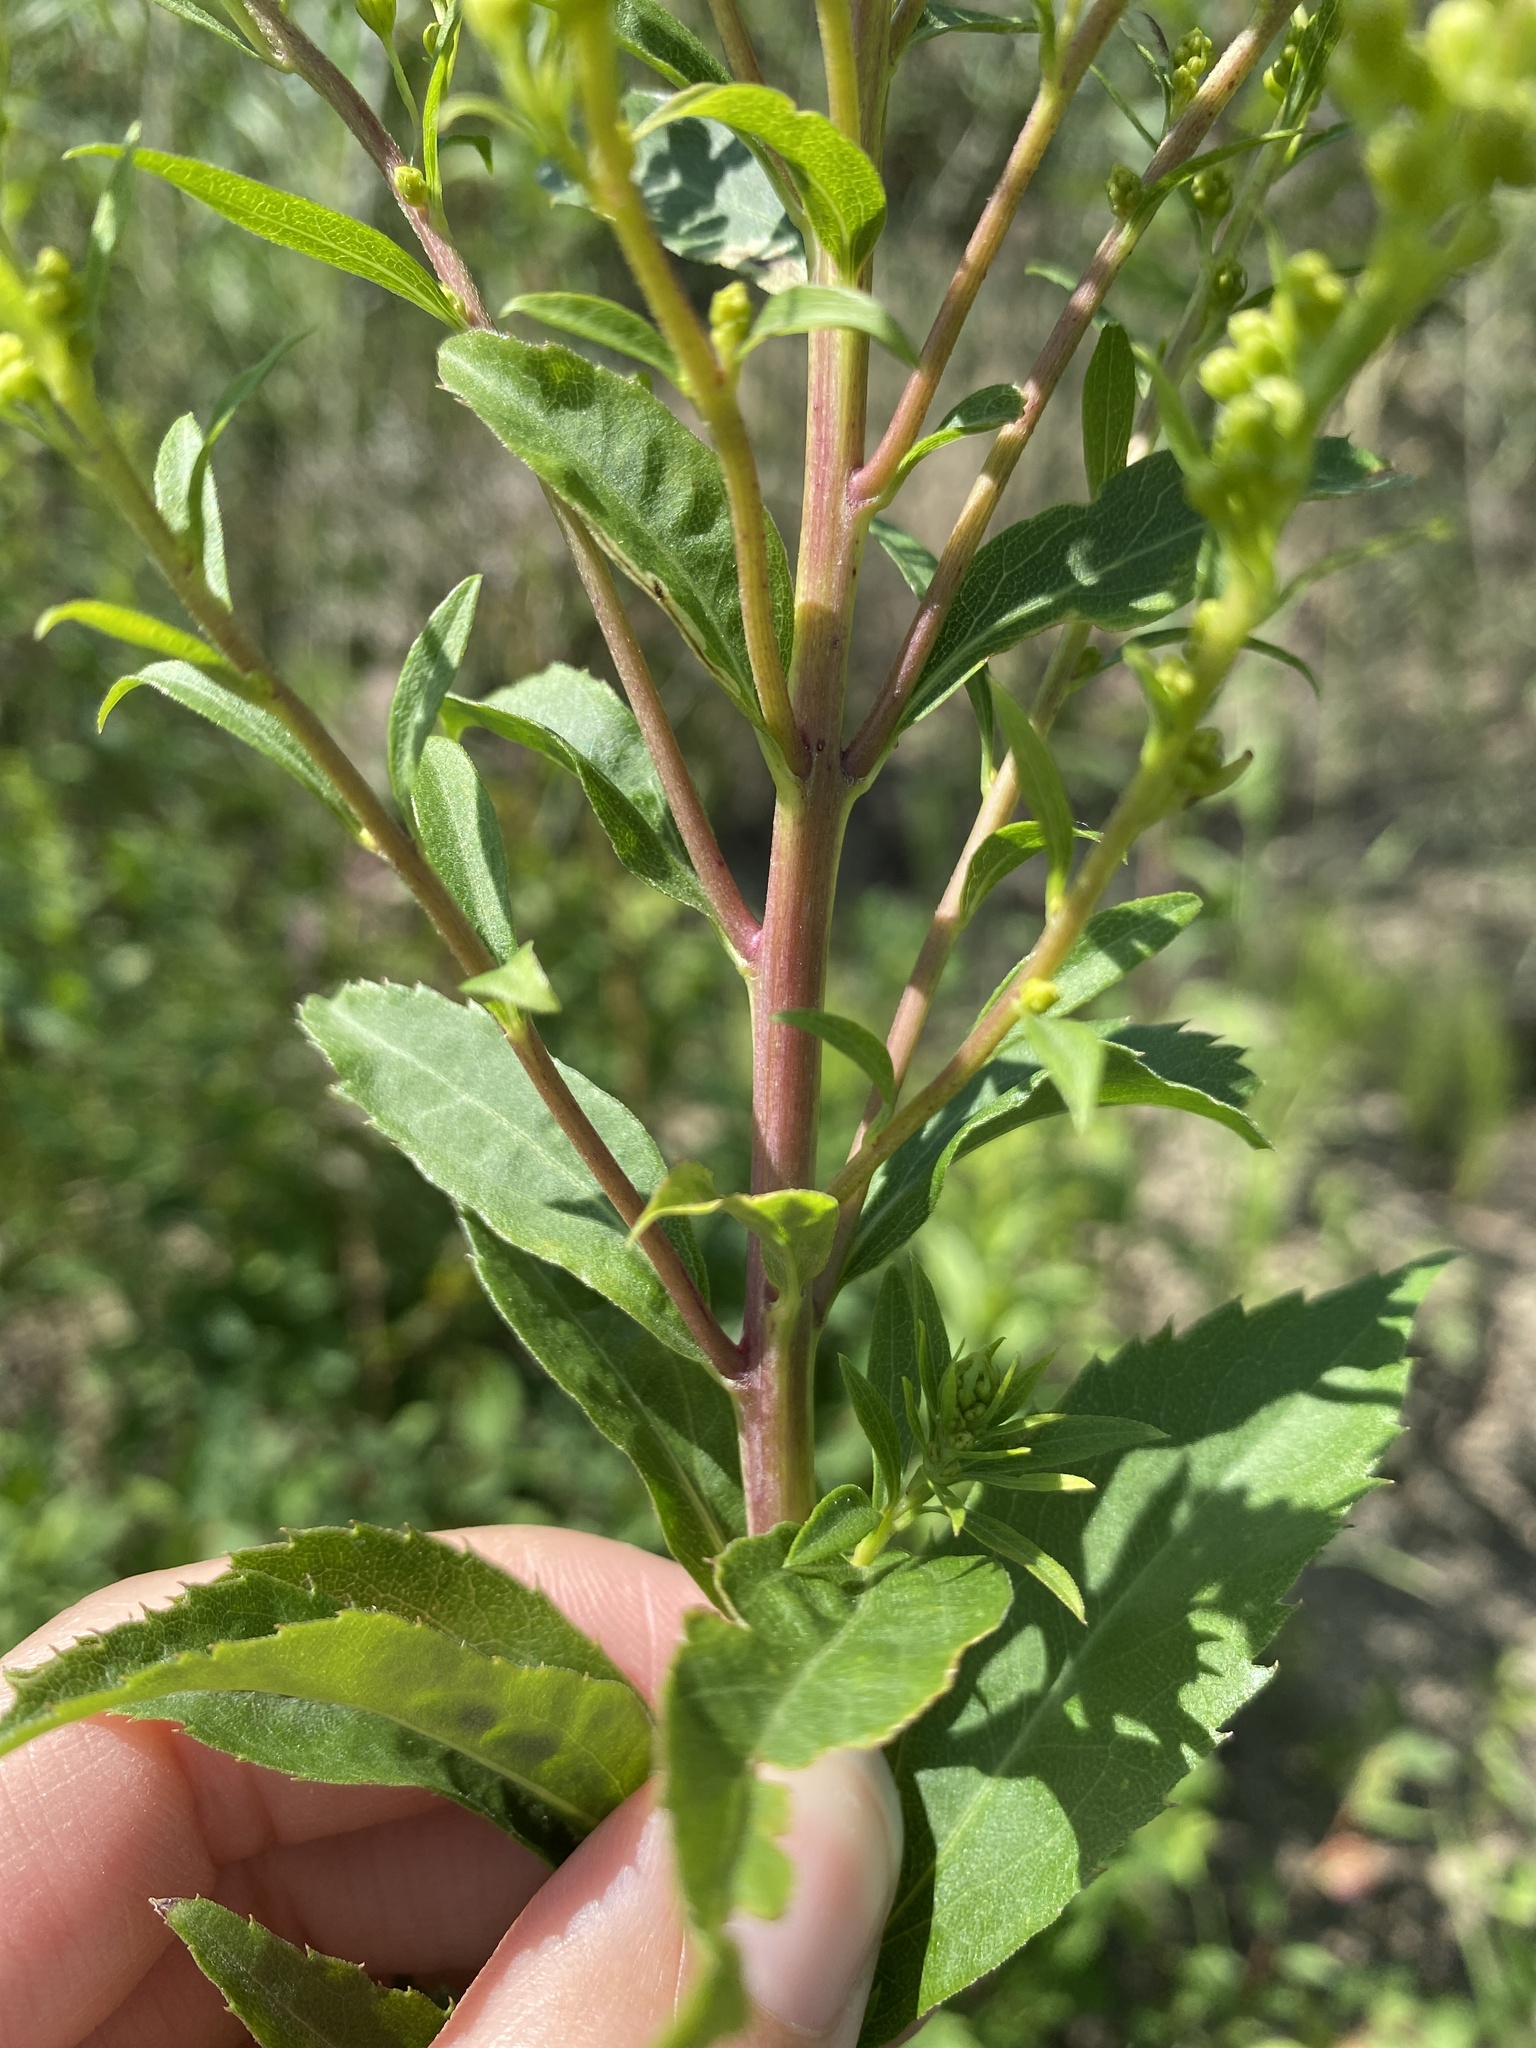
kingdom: Plantae
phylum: Tracheophyta
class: Magnoliopsida
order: Asterales
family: Asteraceae
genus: Solidago
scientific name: Solidago gigantea
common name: Giant goldenrod
